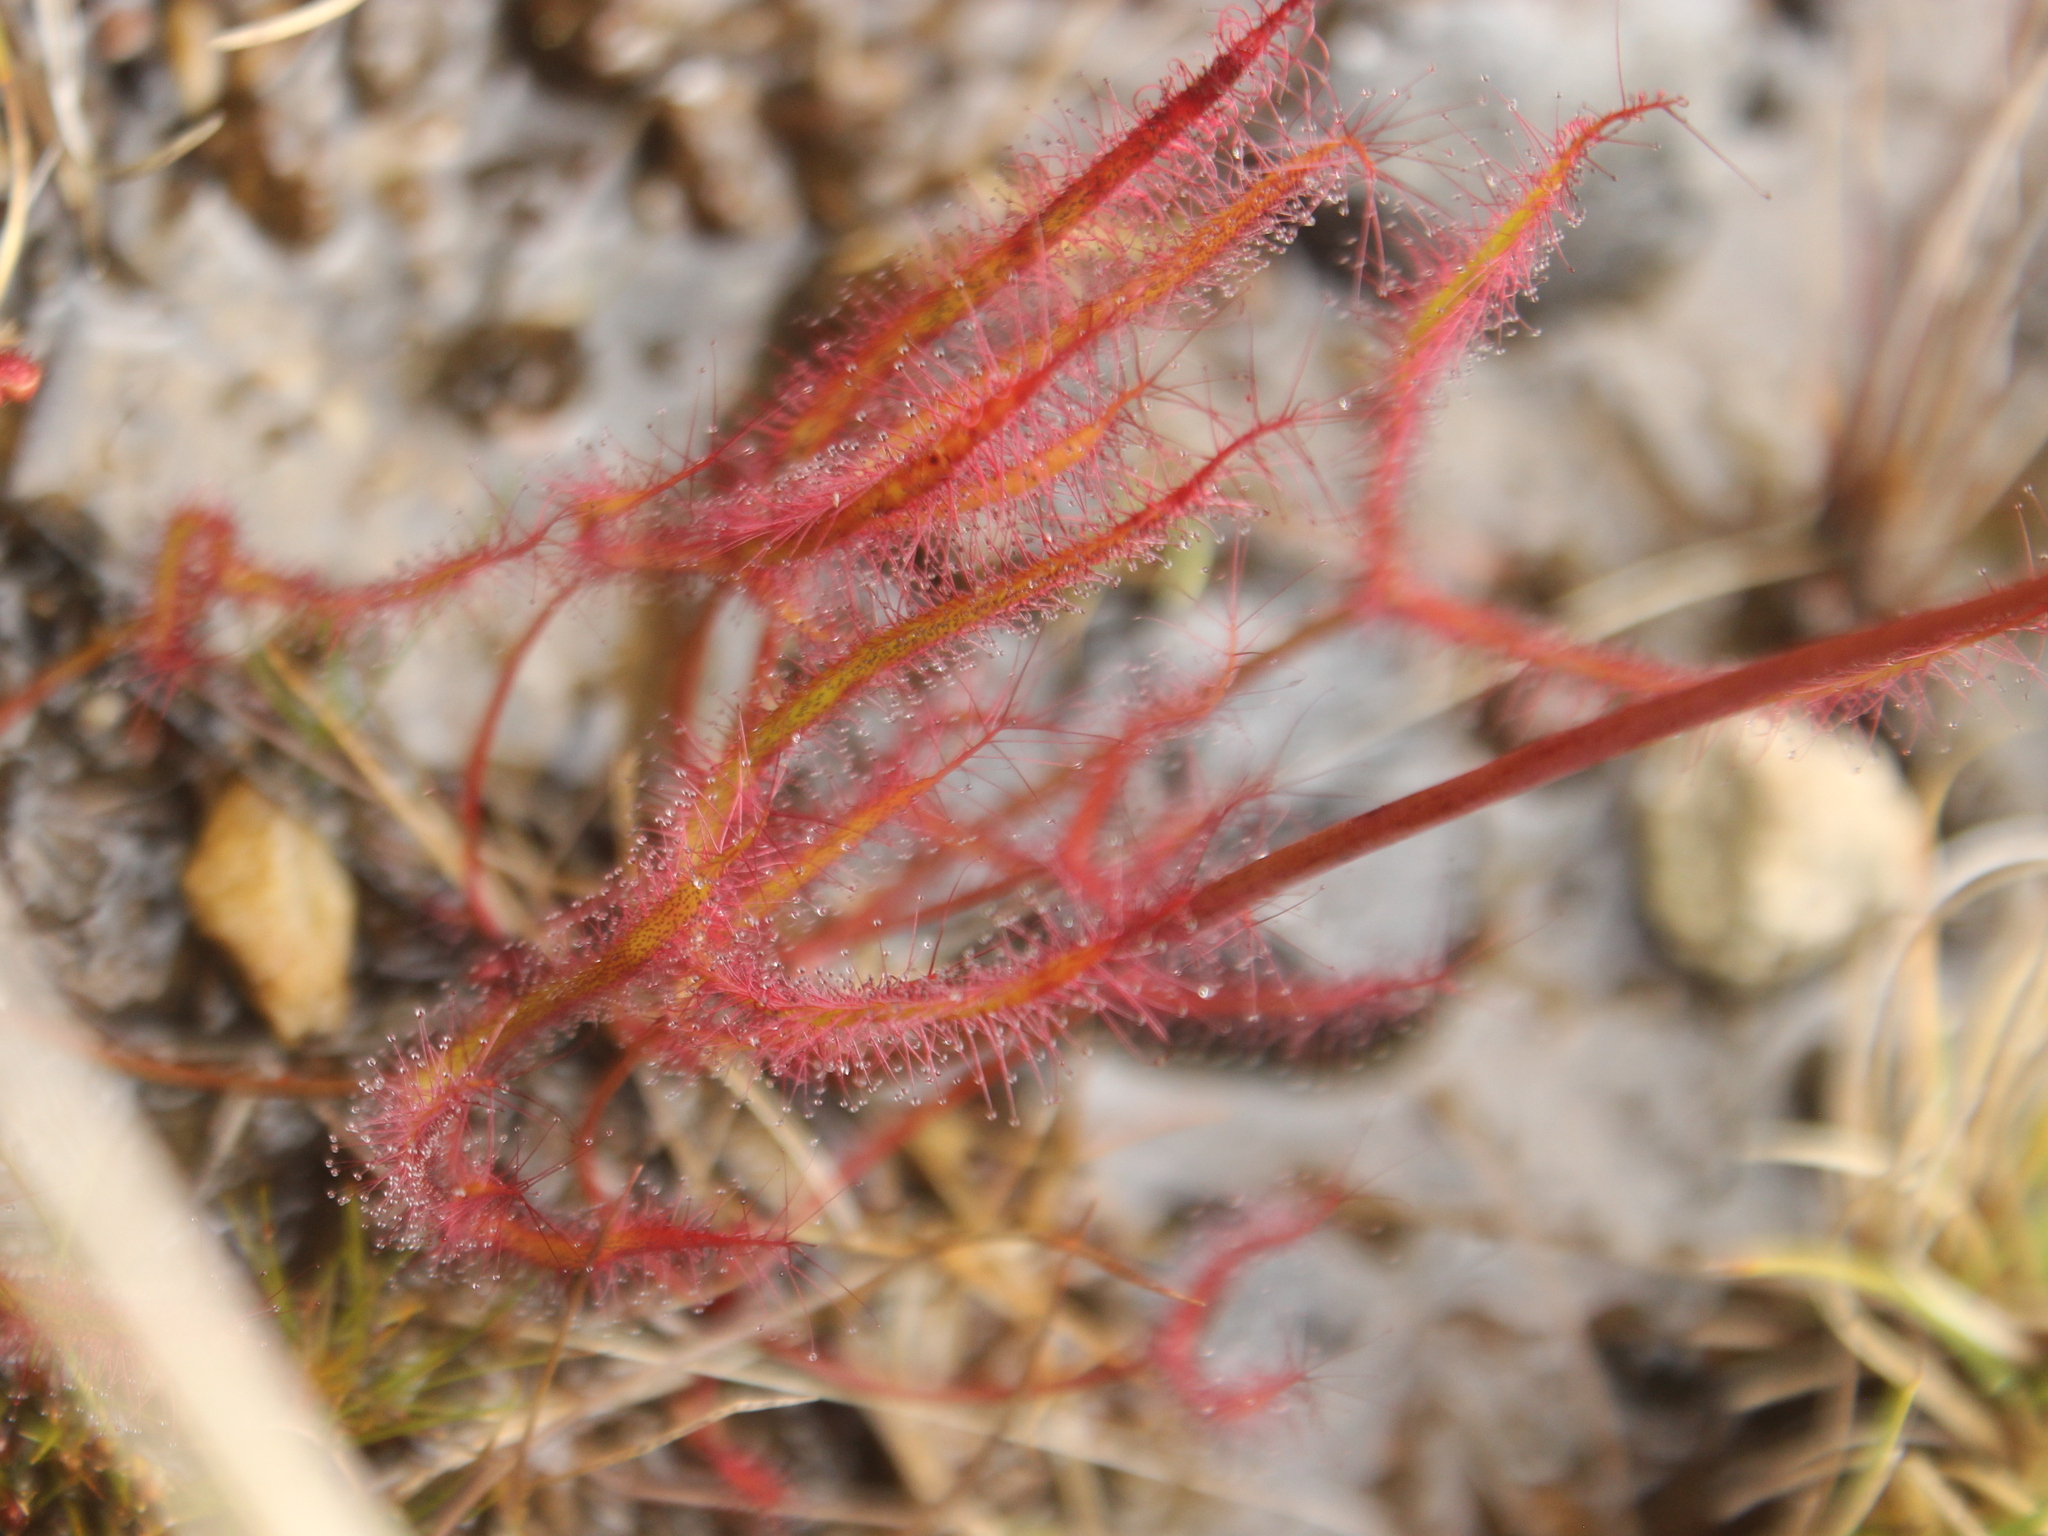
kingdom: Plantae
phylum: Tracheophyta
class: Magnoliopsida
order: Caryophyllales
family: Droseraceae
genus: Drosera
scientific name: Drosera binata
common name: Forked sundew
